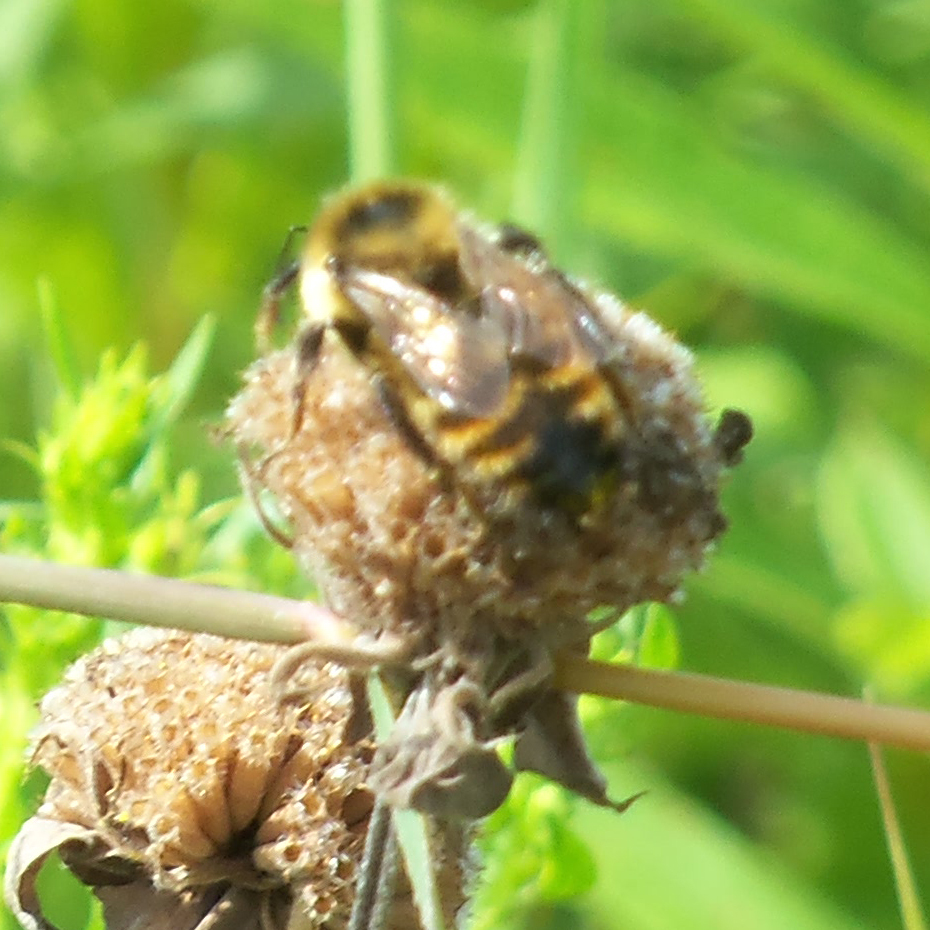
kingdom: Animalia
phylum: Arthropoda
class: Insecta
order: Hymenoptera
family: Apidae
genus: Bombus
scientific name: Bombus rufocinctus
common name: Red-belted bumble bee
